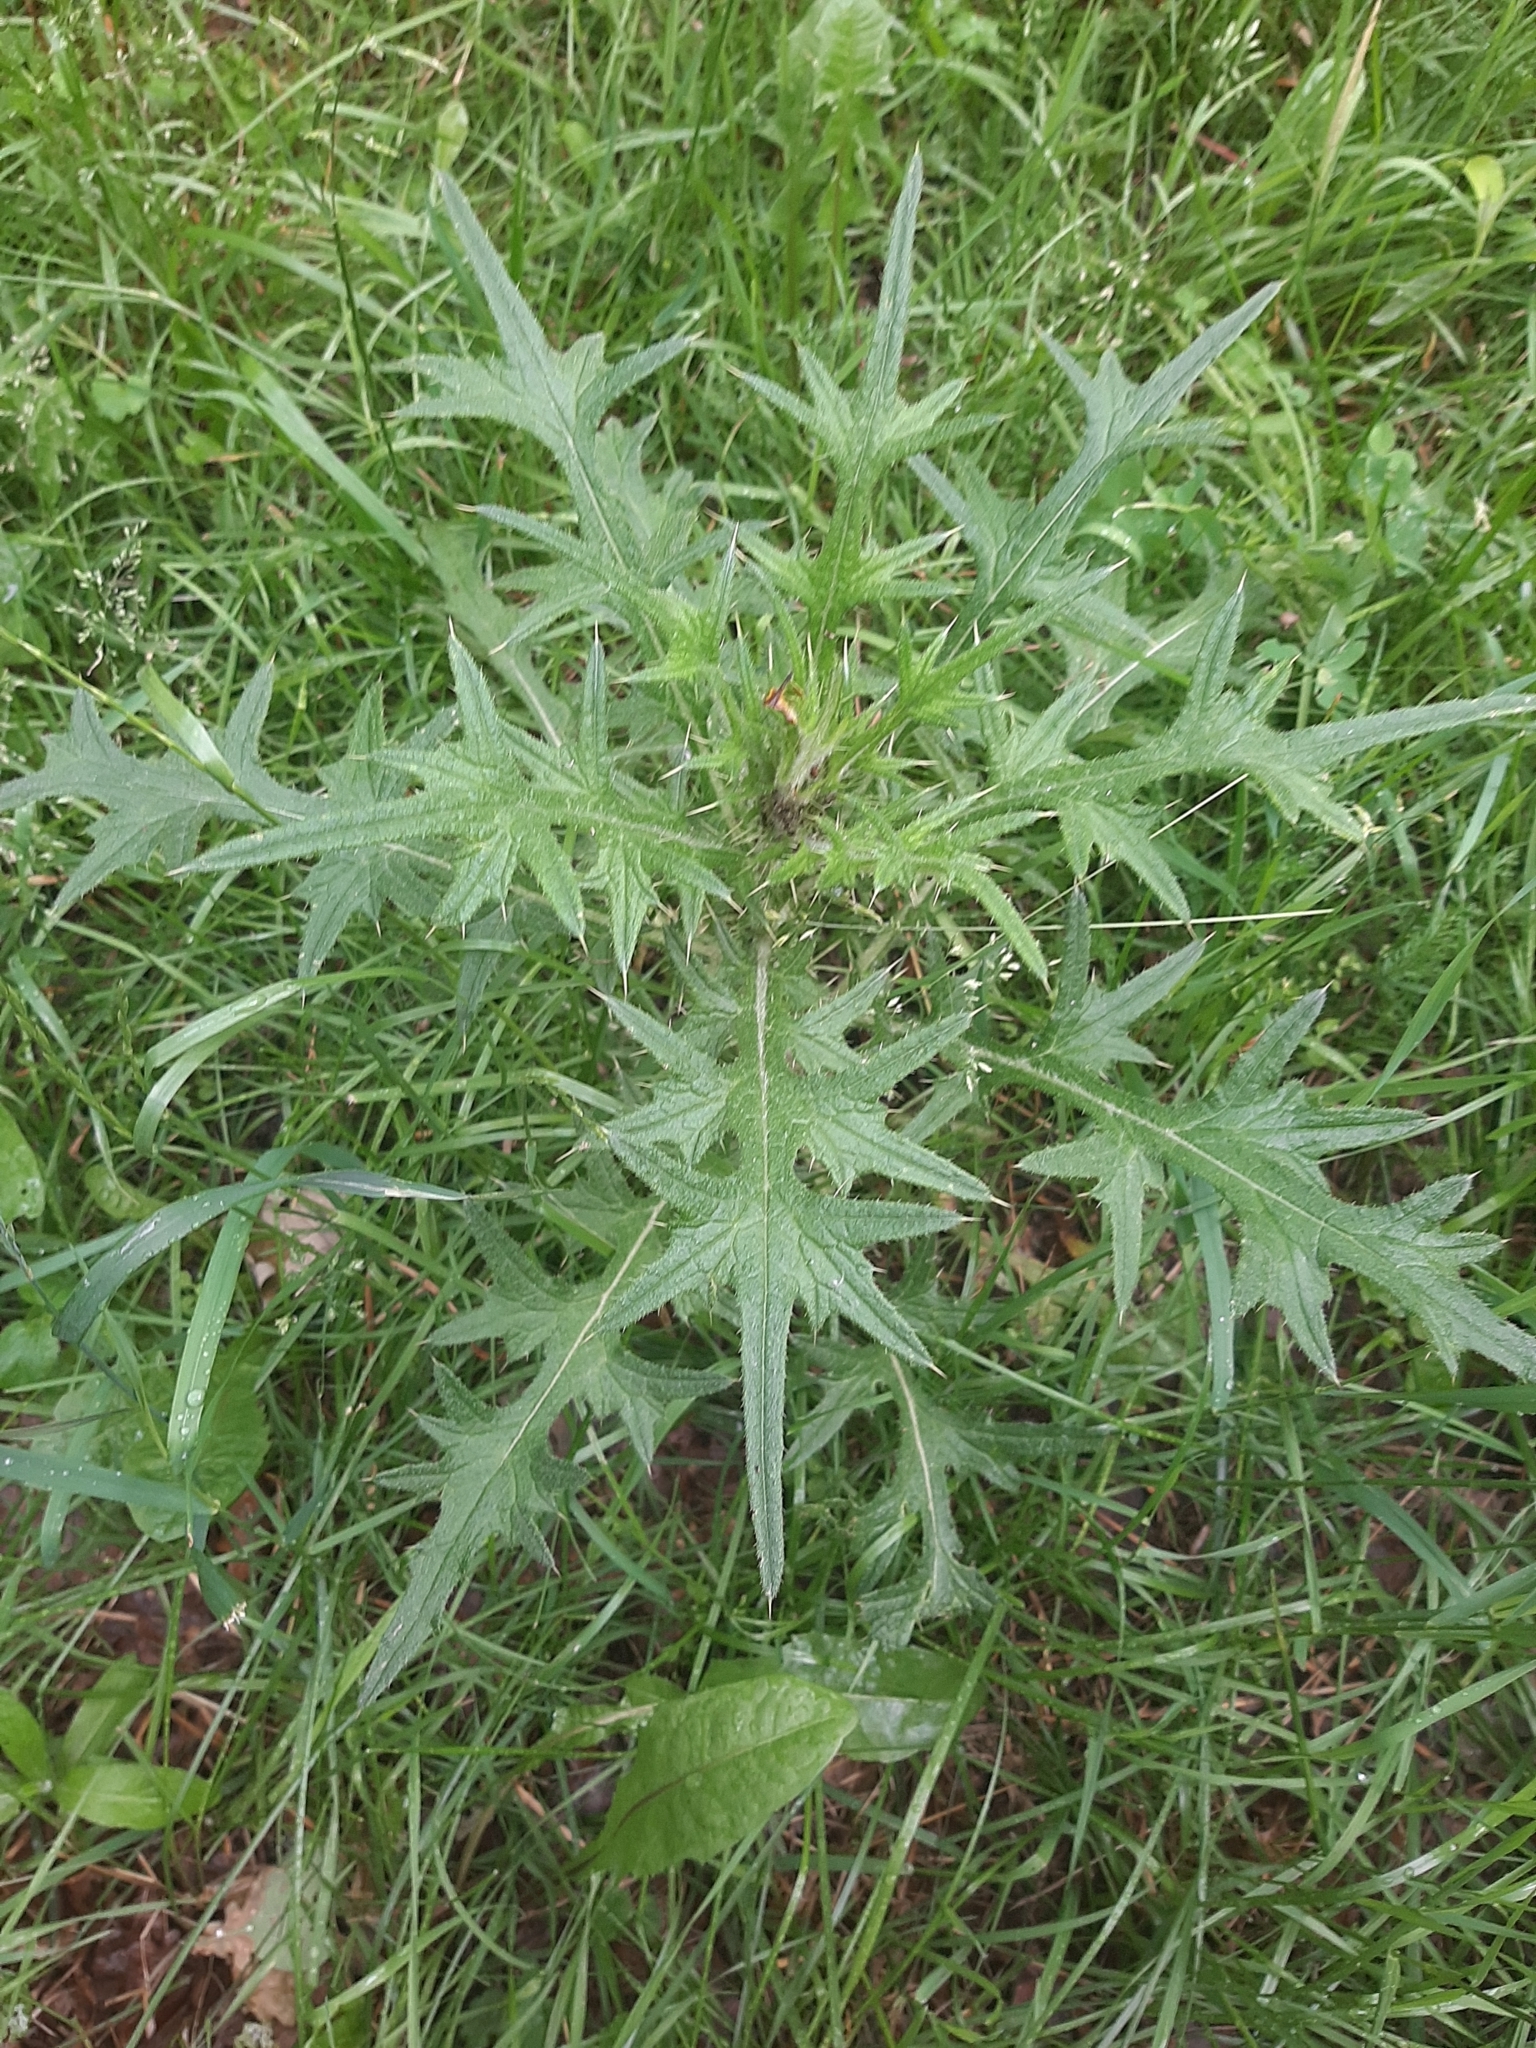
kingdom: Plantae
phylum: Tracheophyta
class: Magnoliopsida
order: Asterales
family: Asteraceae
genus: Cirsium
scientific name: Cirsium vulgare
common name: Bull thistle
